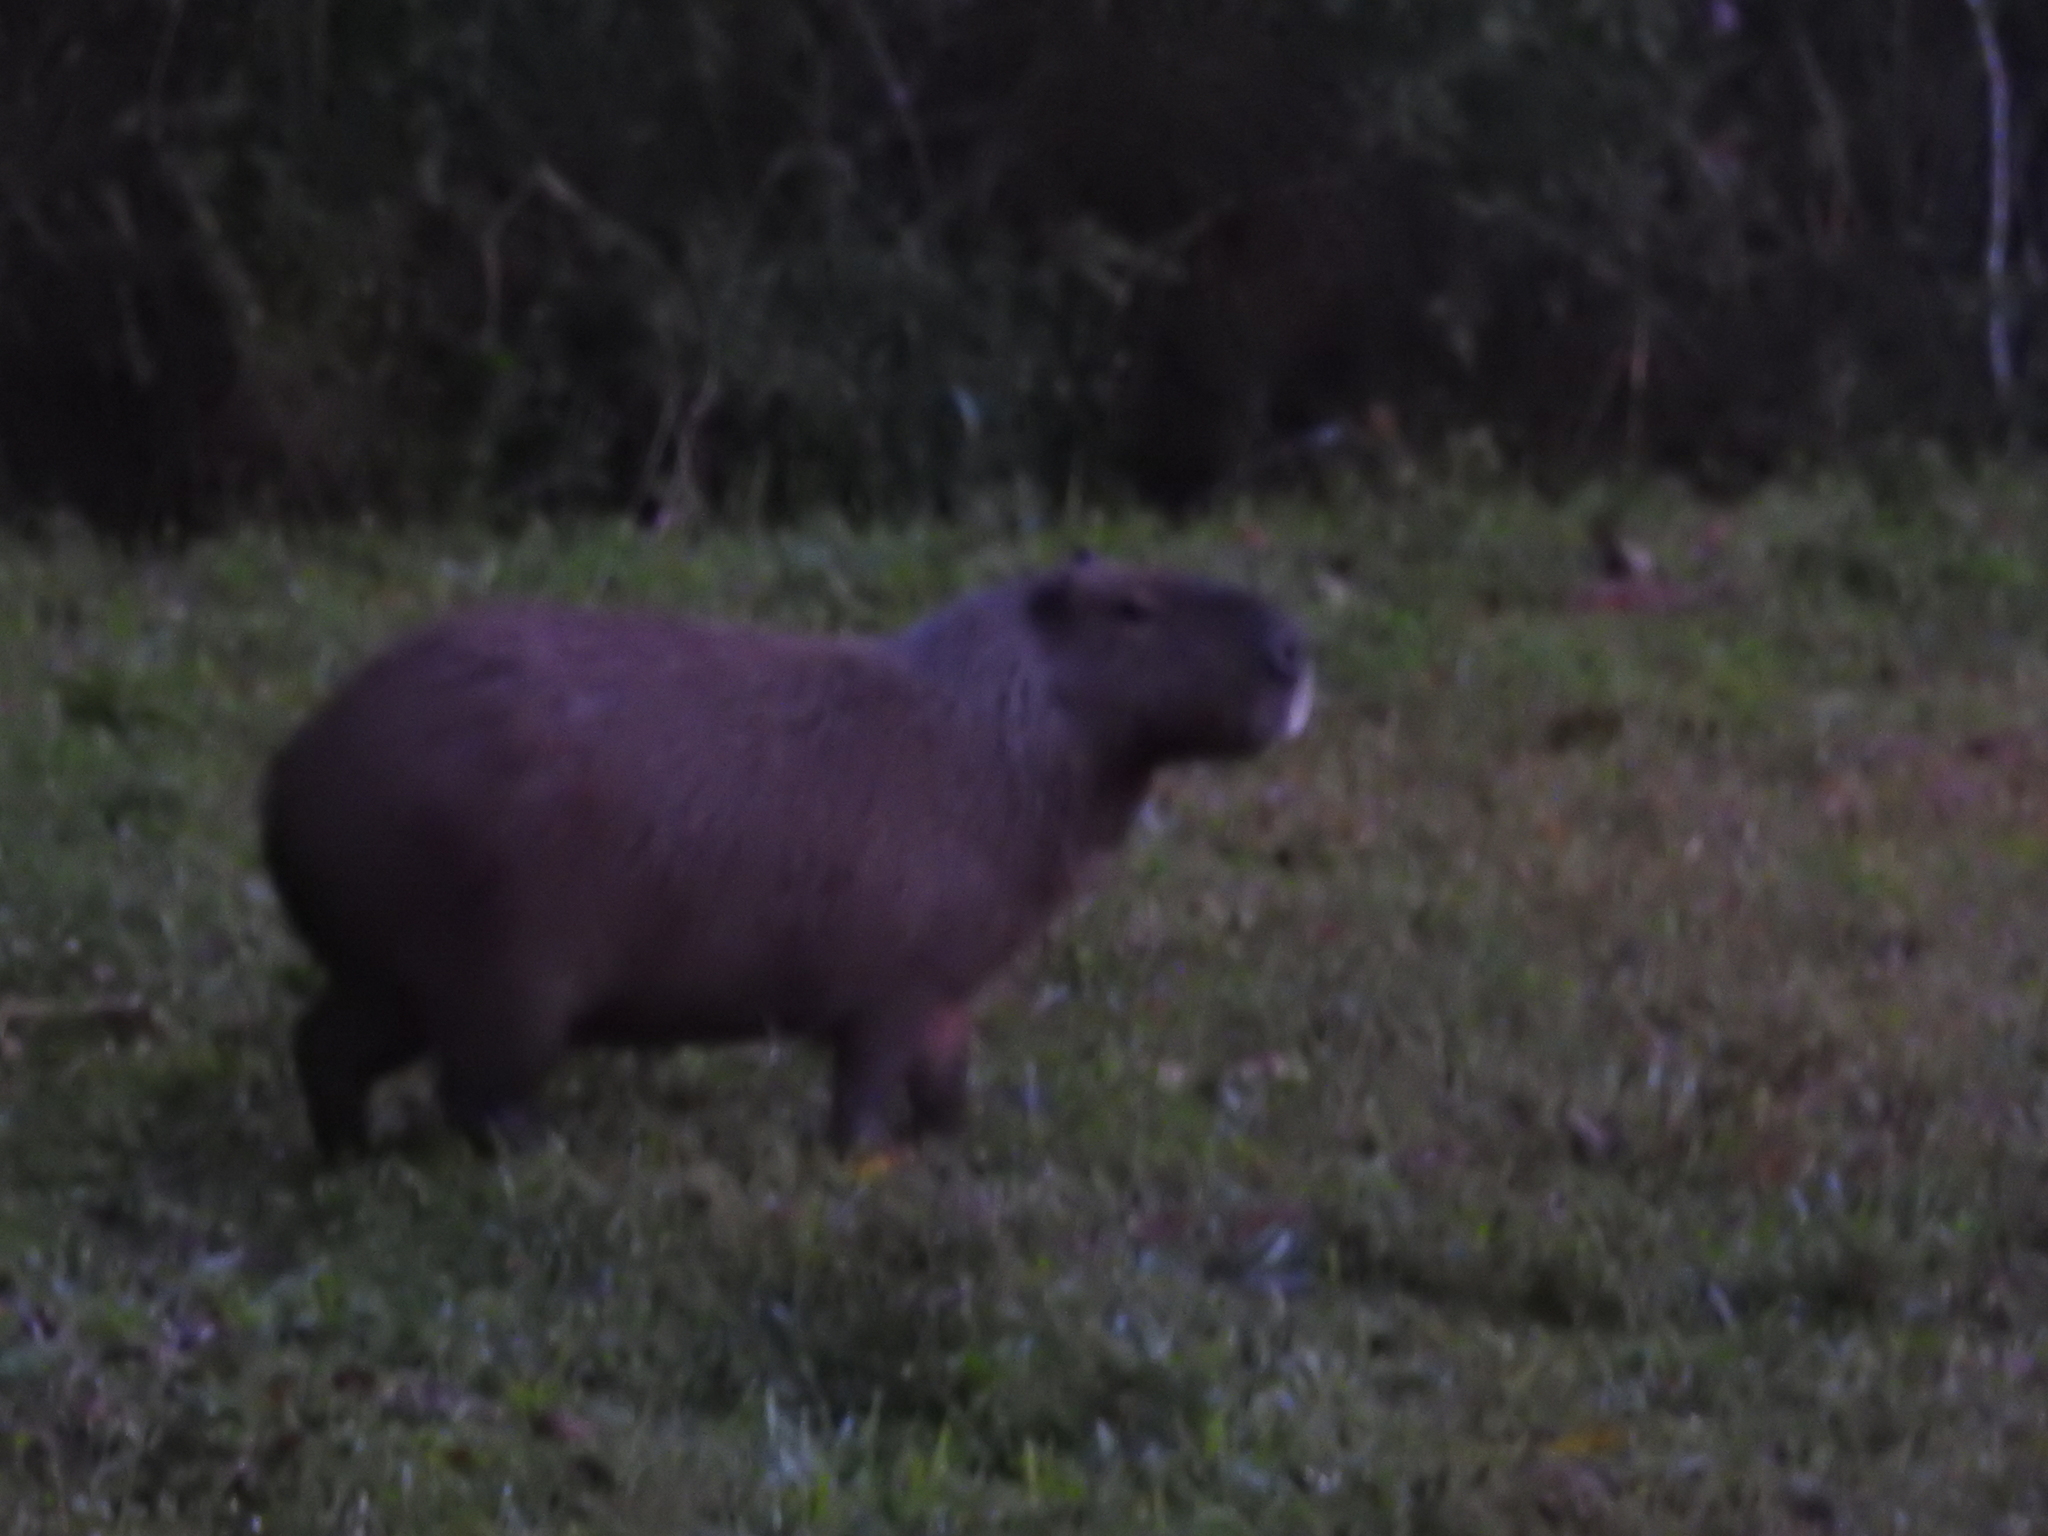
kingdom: Animalia
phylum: Chordata
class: Mammalia
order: Rodentia
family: Caviidae
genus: Hydrochoerus
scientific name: Hydrochoerus hydrochaeris
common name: Capybara
